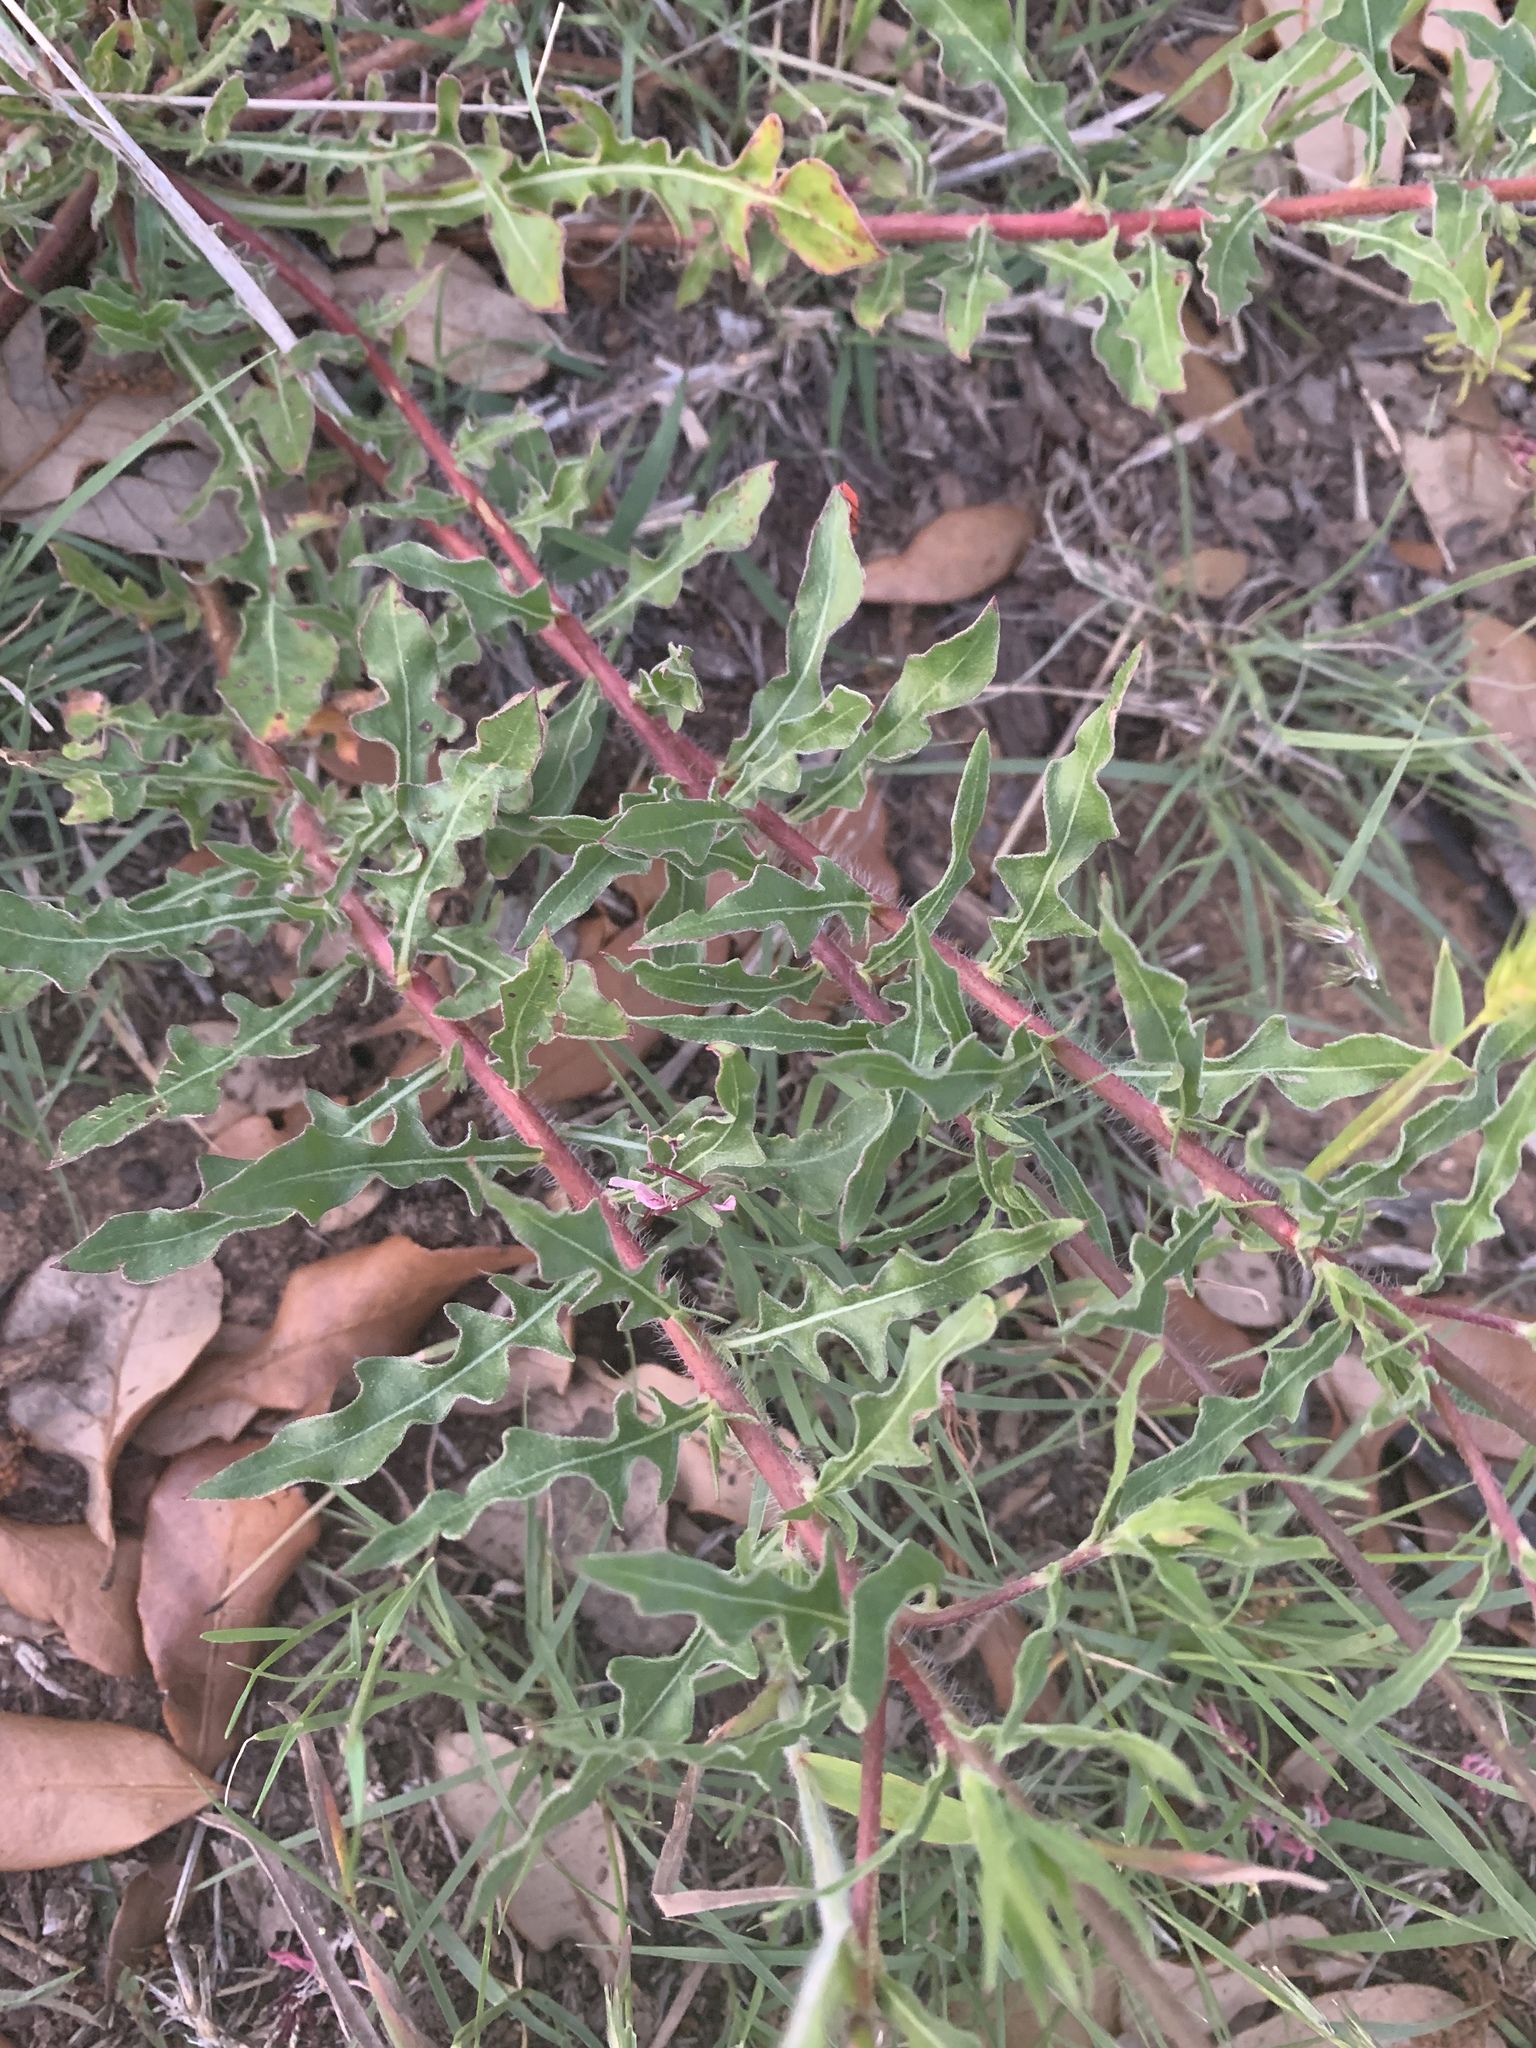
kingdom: Plantae
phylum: Tracheophyta
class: Magnoliopsida
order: Myrtales
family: Onagraceae
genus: Oenothera
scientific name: Oenothera suffulta
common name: Kisses
